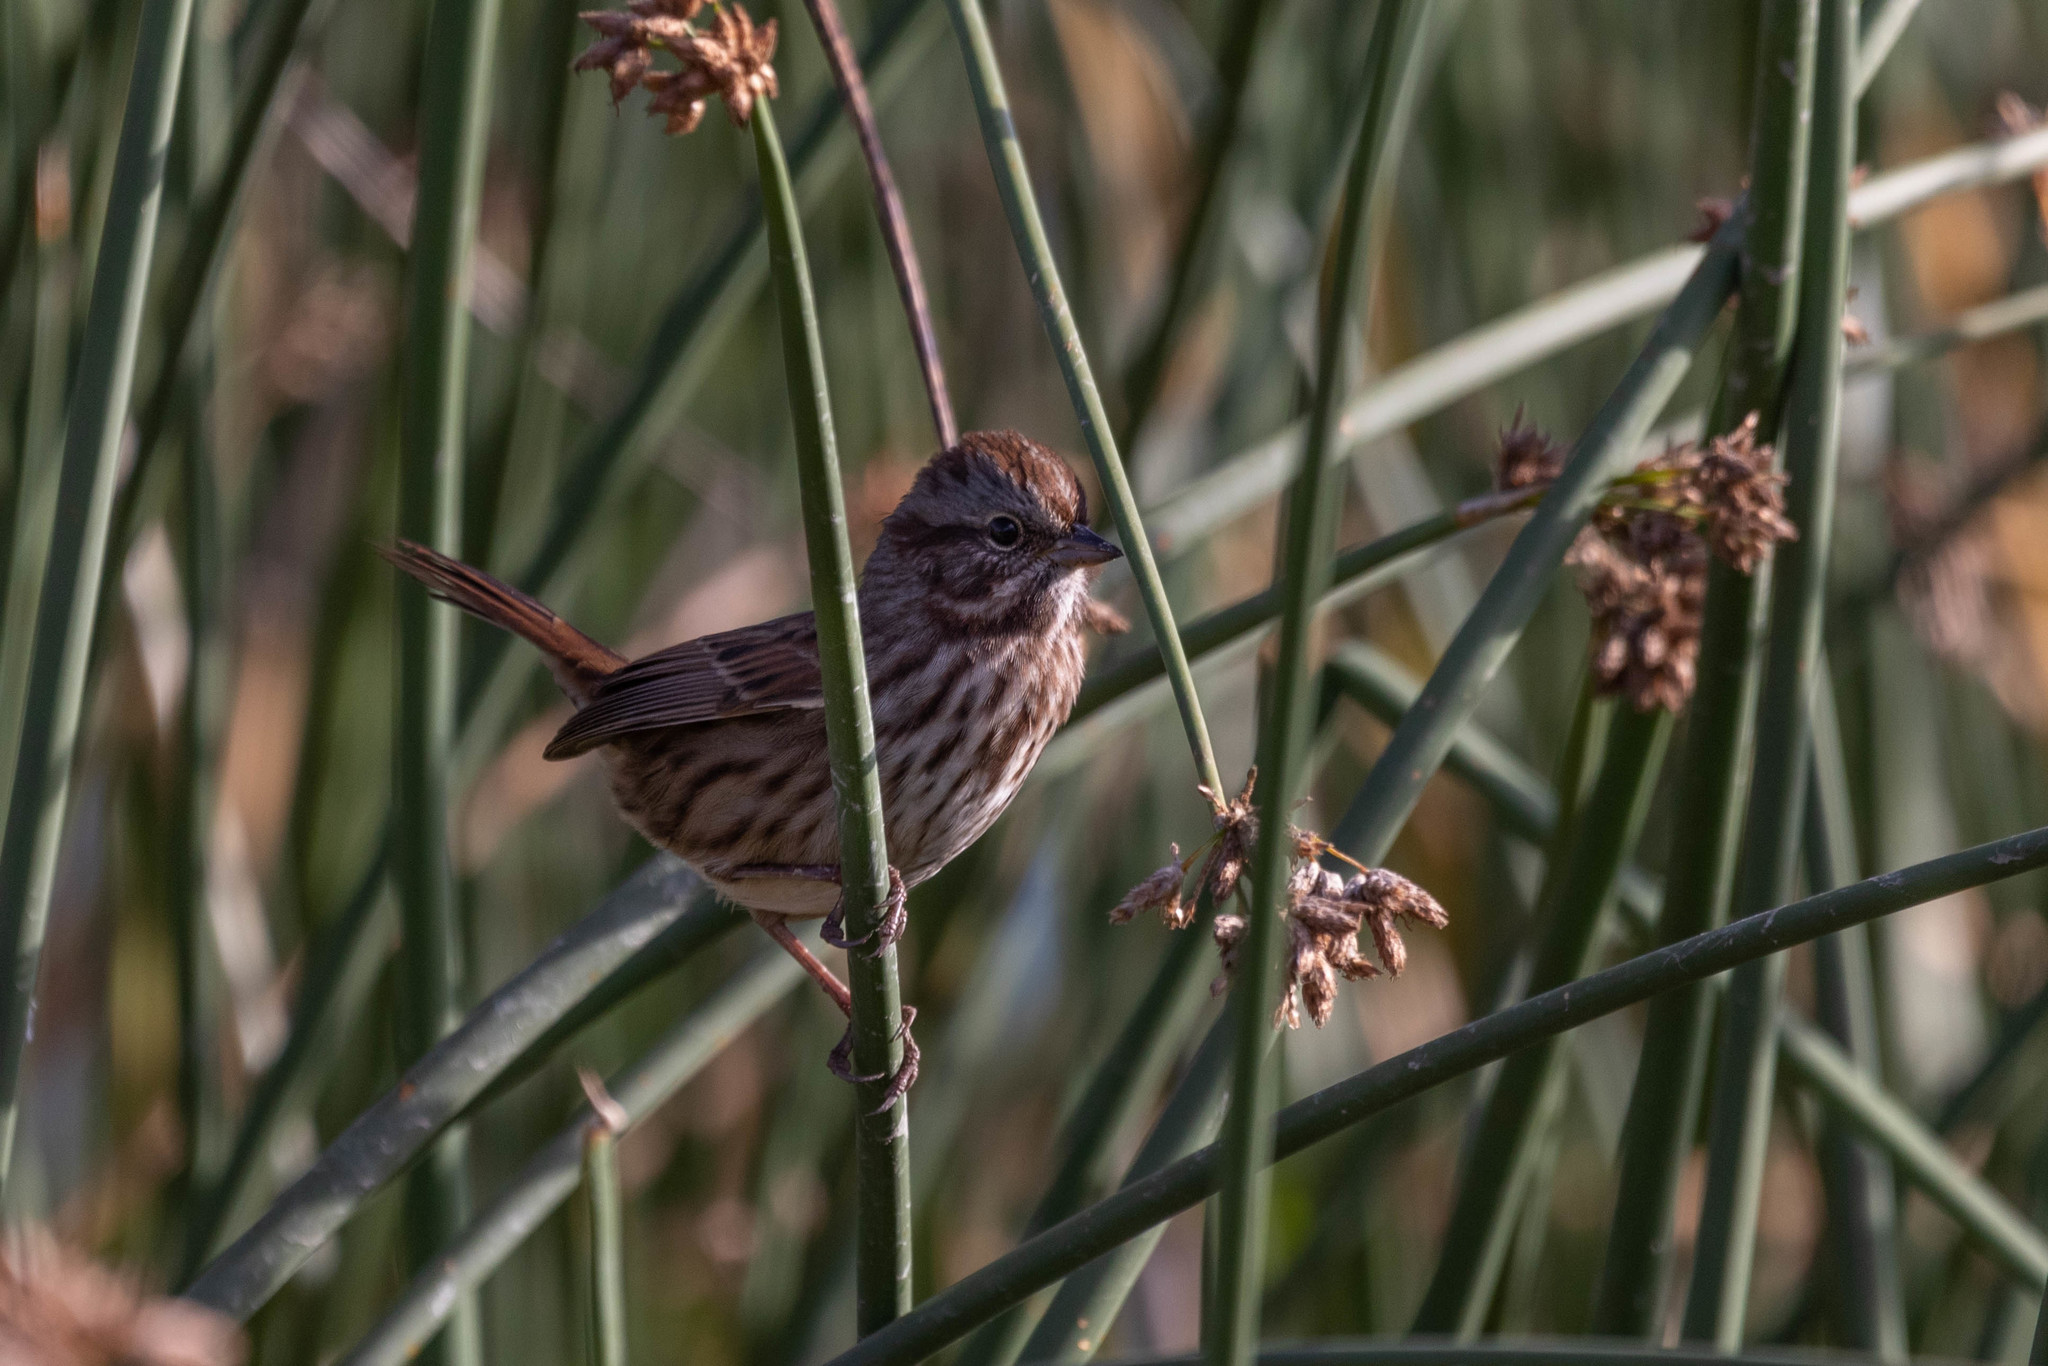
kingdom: Animalia
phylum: Chordata
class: Aves
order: Passeriformes
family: Passerellidae
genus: Melospiza
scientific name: Melospiza melodia
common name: Song sparrow
